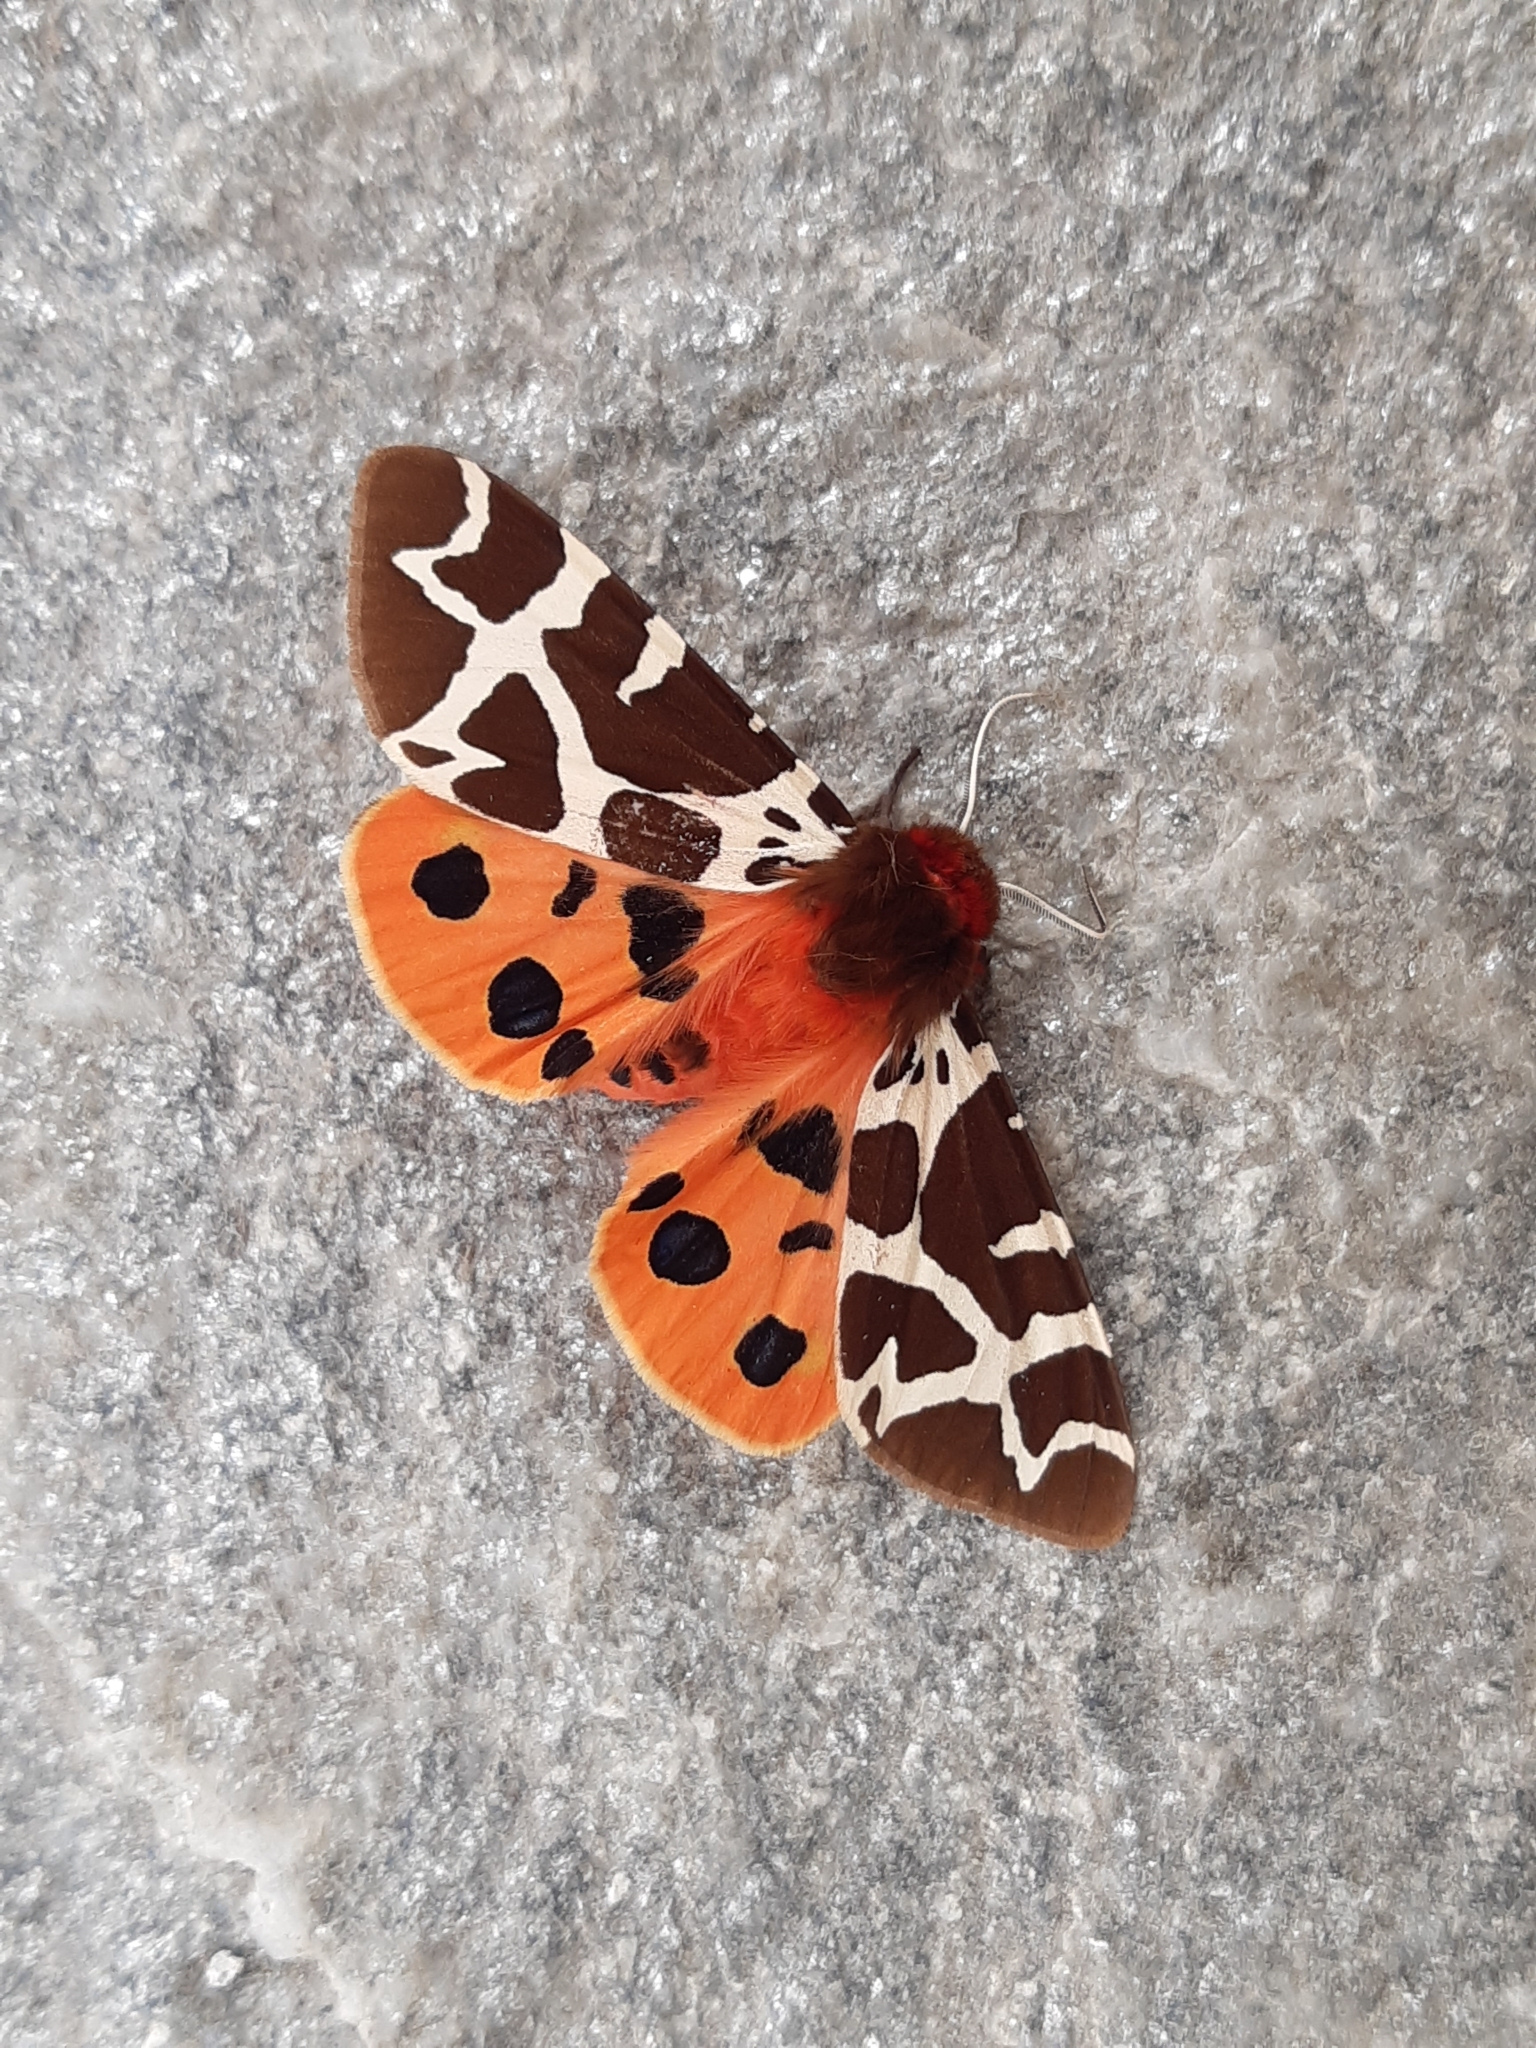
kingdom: Animalia
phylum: Arthropoda
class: Insecta
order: Lepidoptera
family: Erebidae
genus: Arctia
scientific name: Arctia caja
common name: Garden tiger
